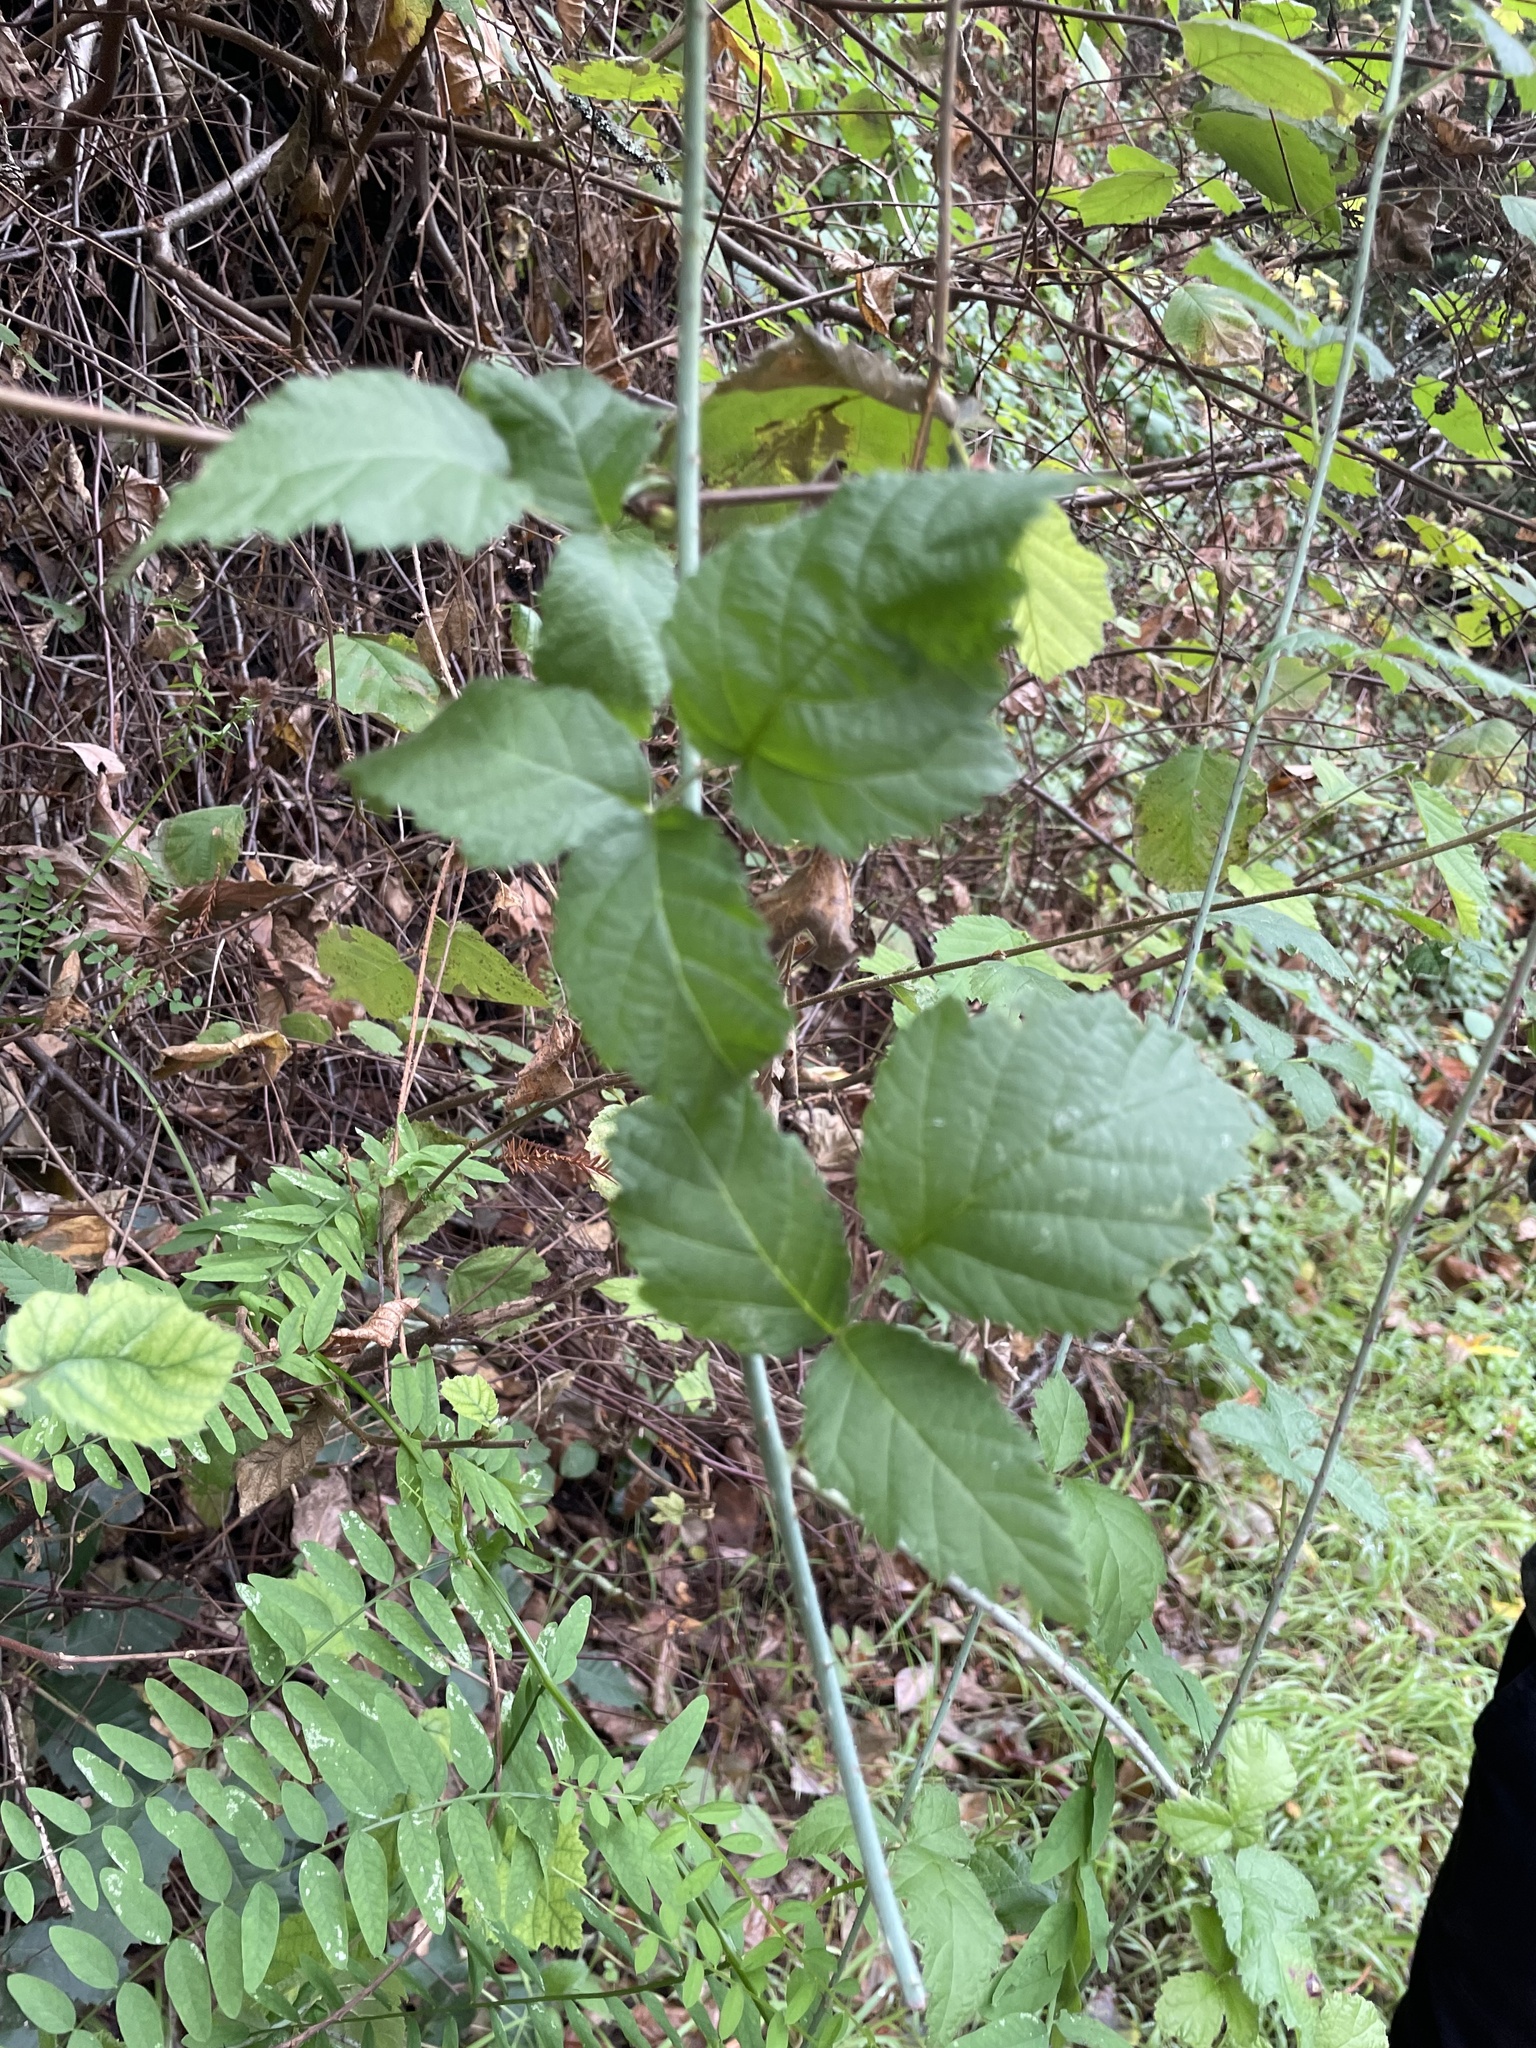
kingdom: Plantae
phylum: Tracheophyta
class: Magnoliopsida
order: Rosales
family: Rosaceae
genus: Rubus
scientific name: Rubus ursinus
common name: Pacific blackberry
